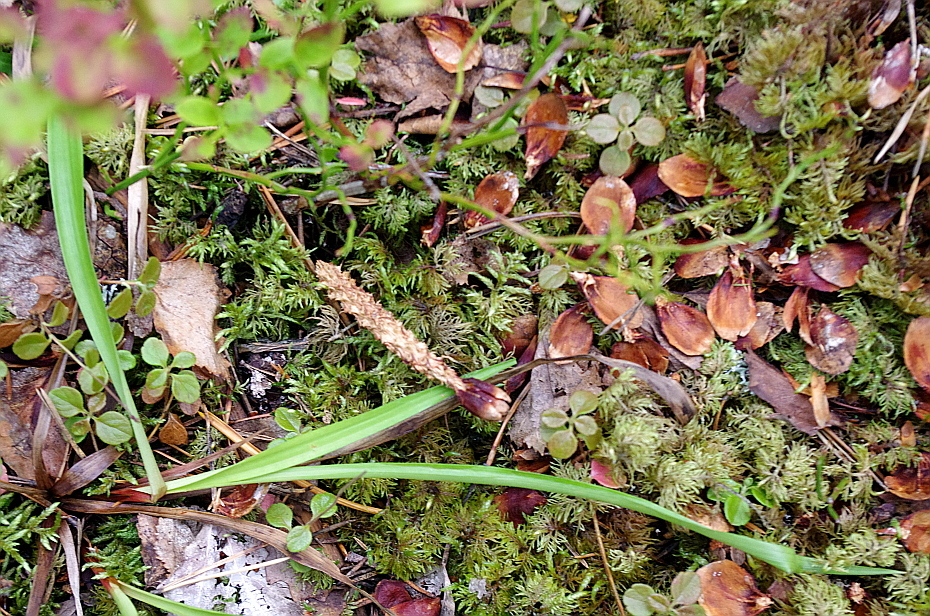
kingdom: Animalia
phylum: Chordata
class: Mammalia
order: Rodentia
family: Sciuridae
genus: Sciurus
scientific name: Sciurus vulgaris
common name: Eurasian red squirrel
